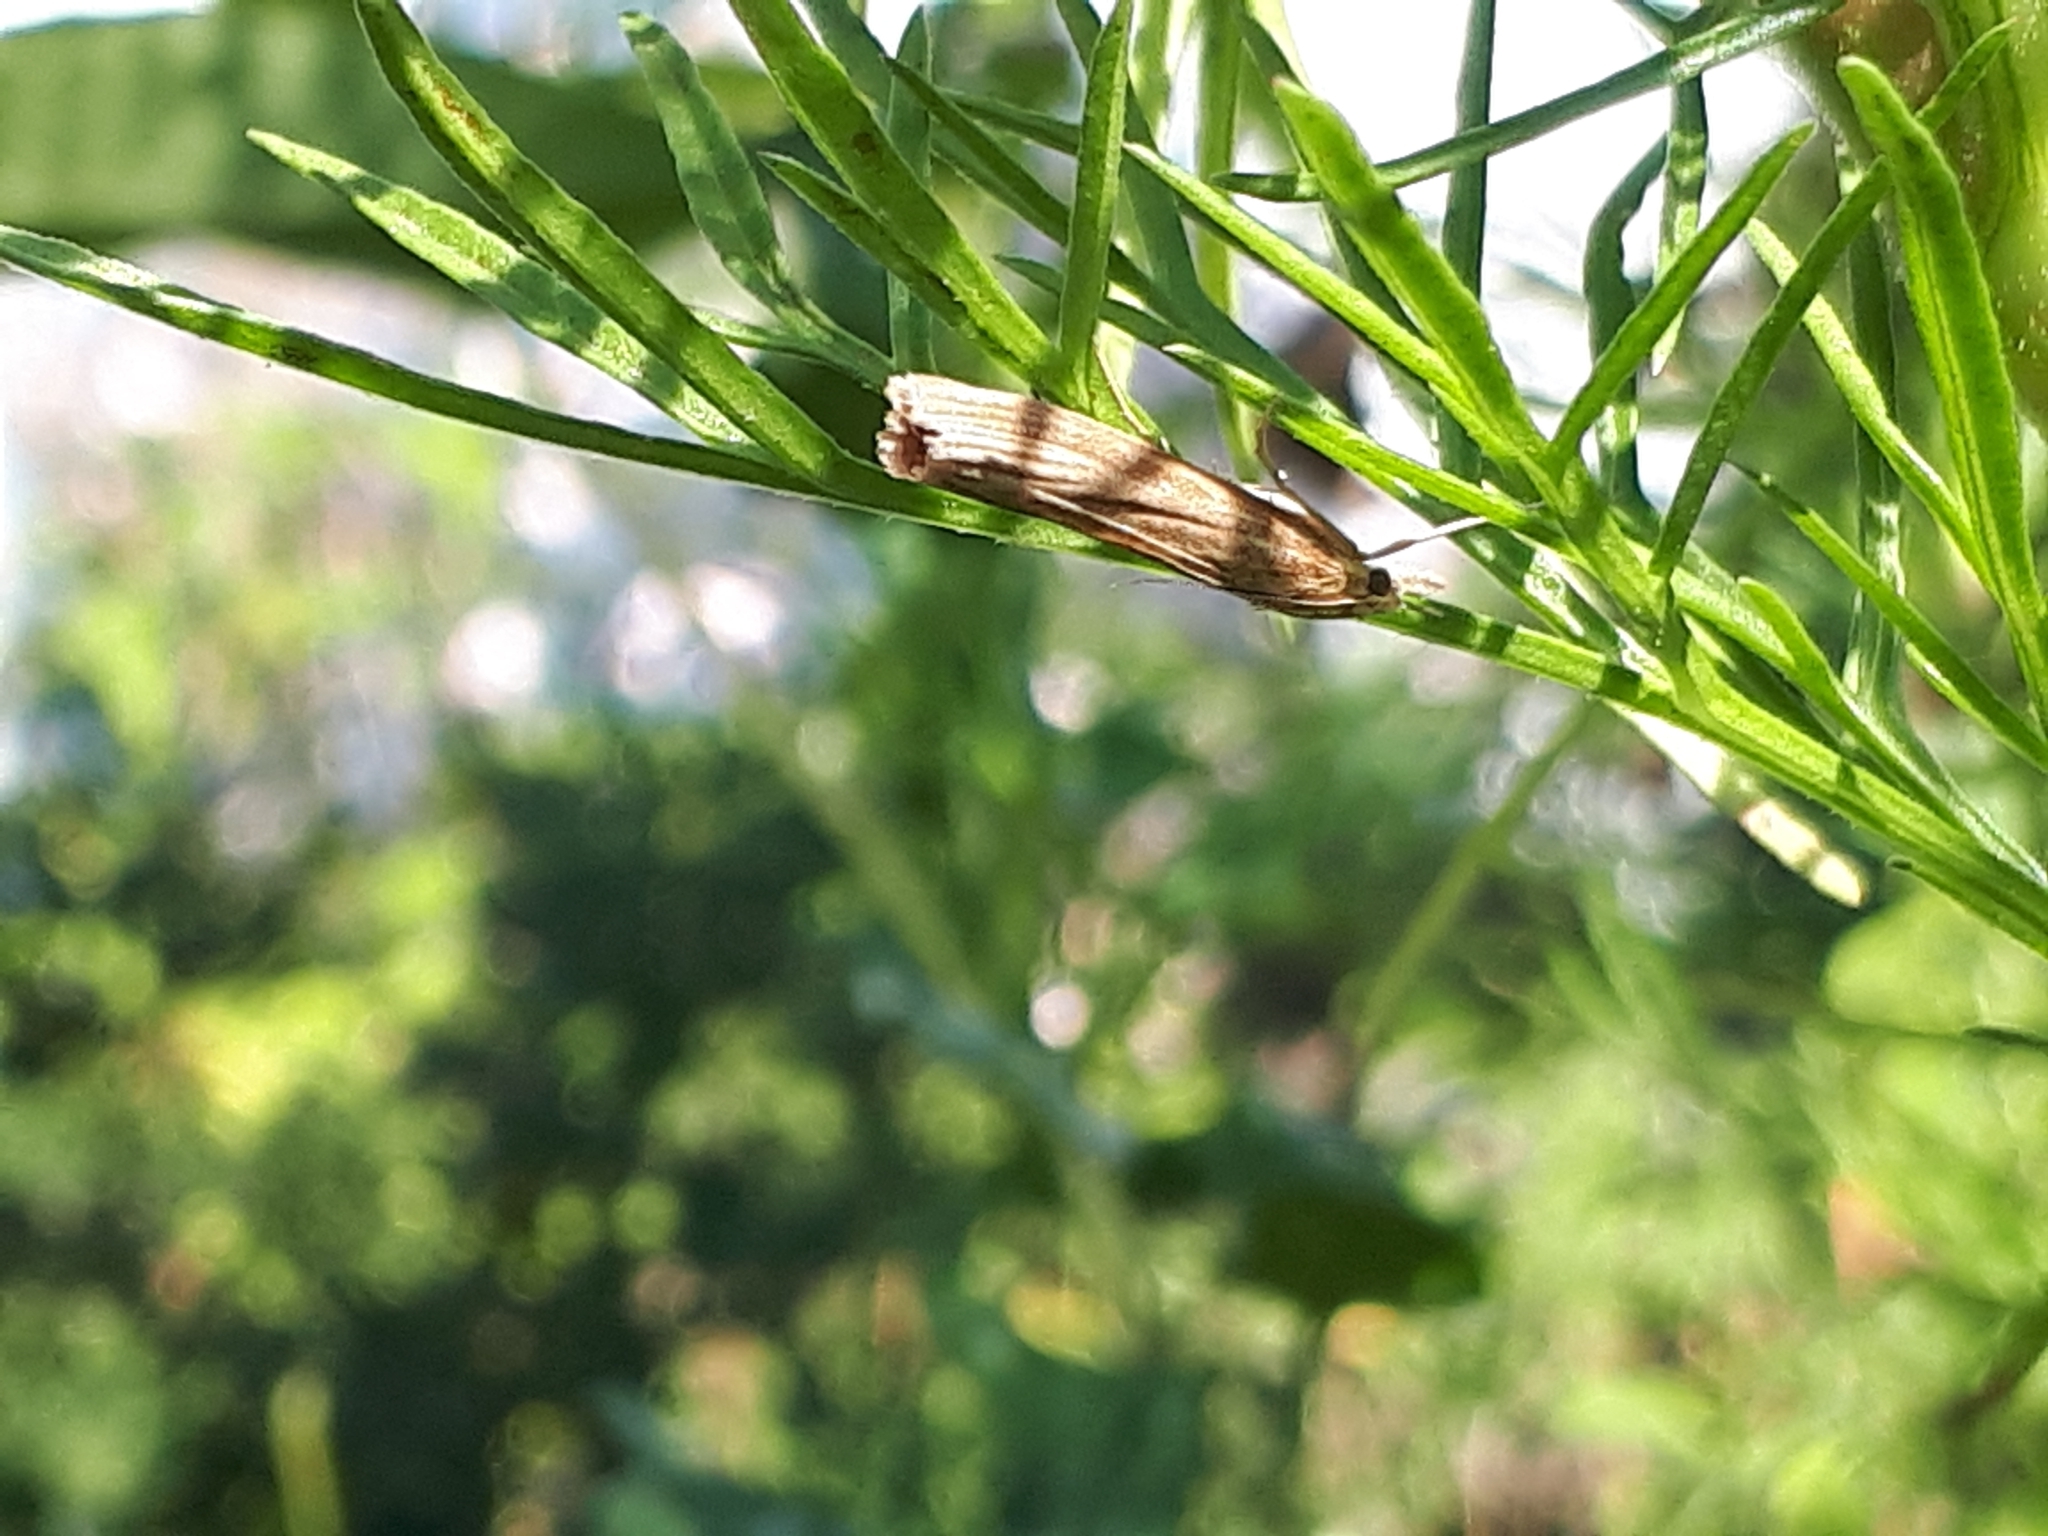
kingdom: Animalia
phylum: Arthropoda
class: Insecta
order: Lepidoptera
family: Crambidae
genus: Agriphila
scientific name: Agriphila tristellus
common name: Common grass-veneer
